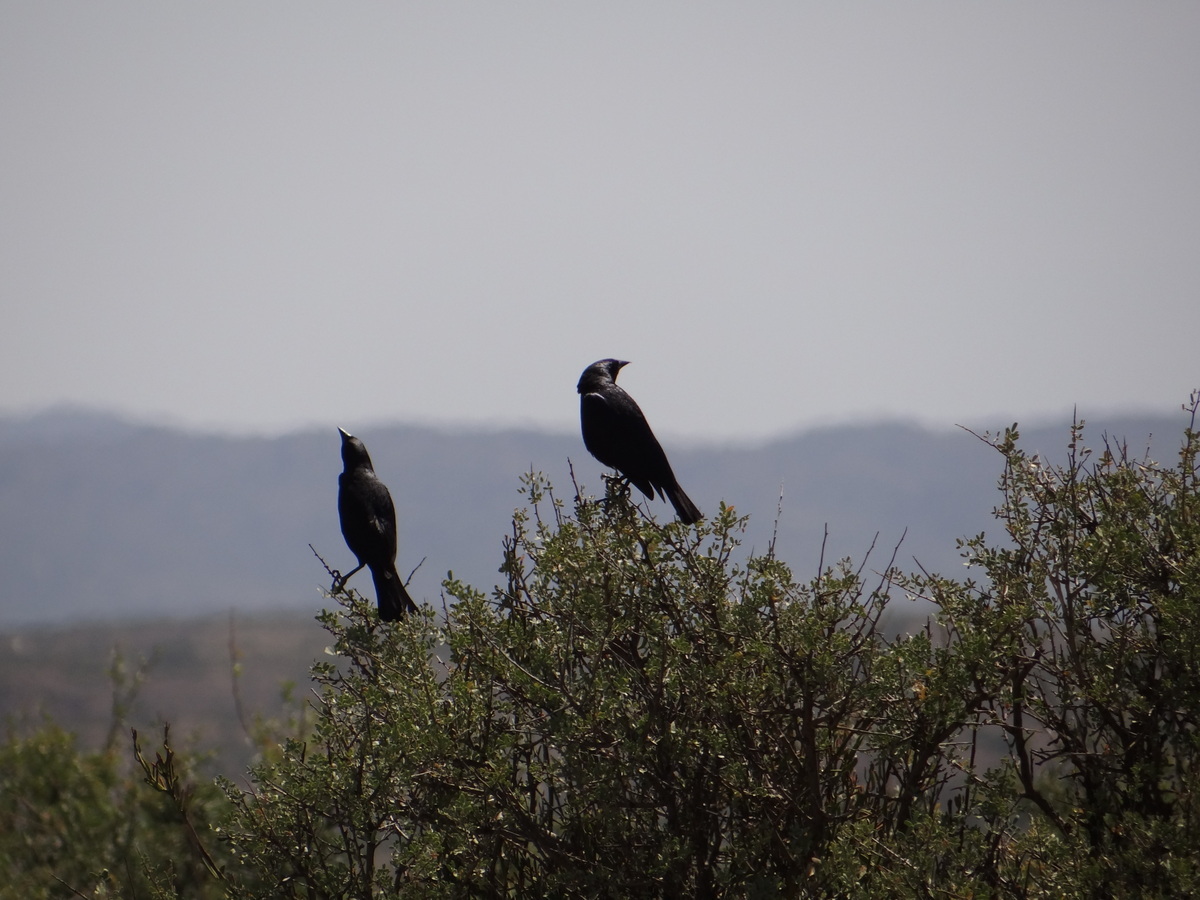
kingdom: Animalia
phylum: Chordata
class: Aves
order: Passeriformes
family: Icteridae
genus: Molothrus
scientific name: Molothrus bonariensis
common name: Shiny cowbird
